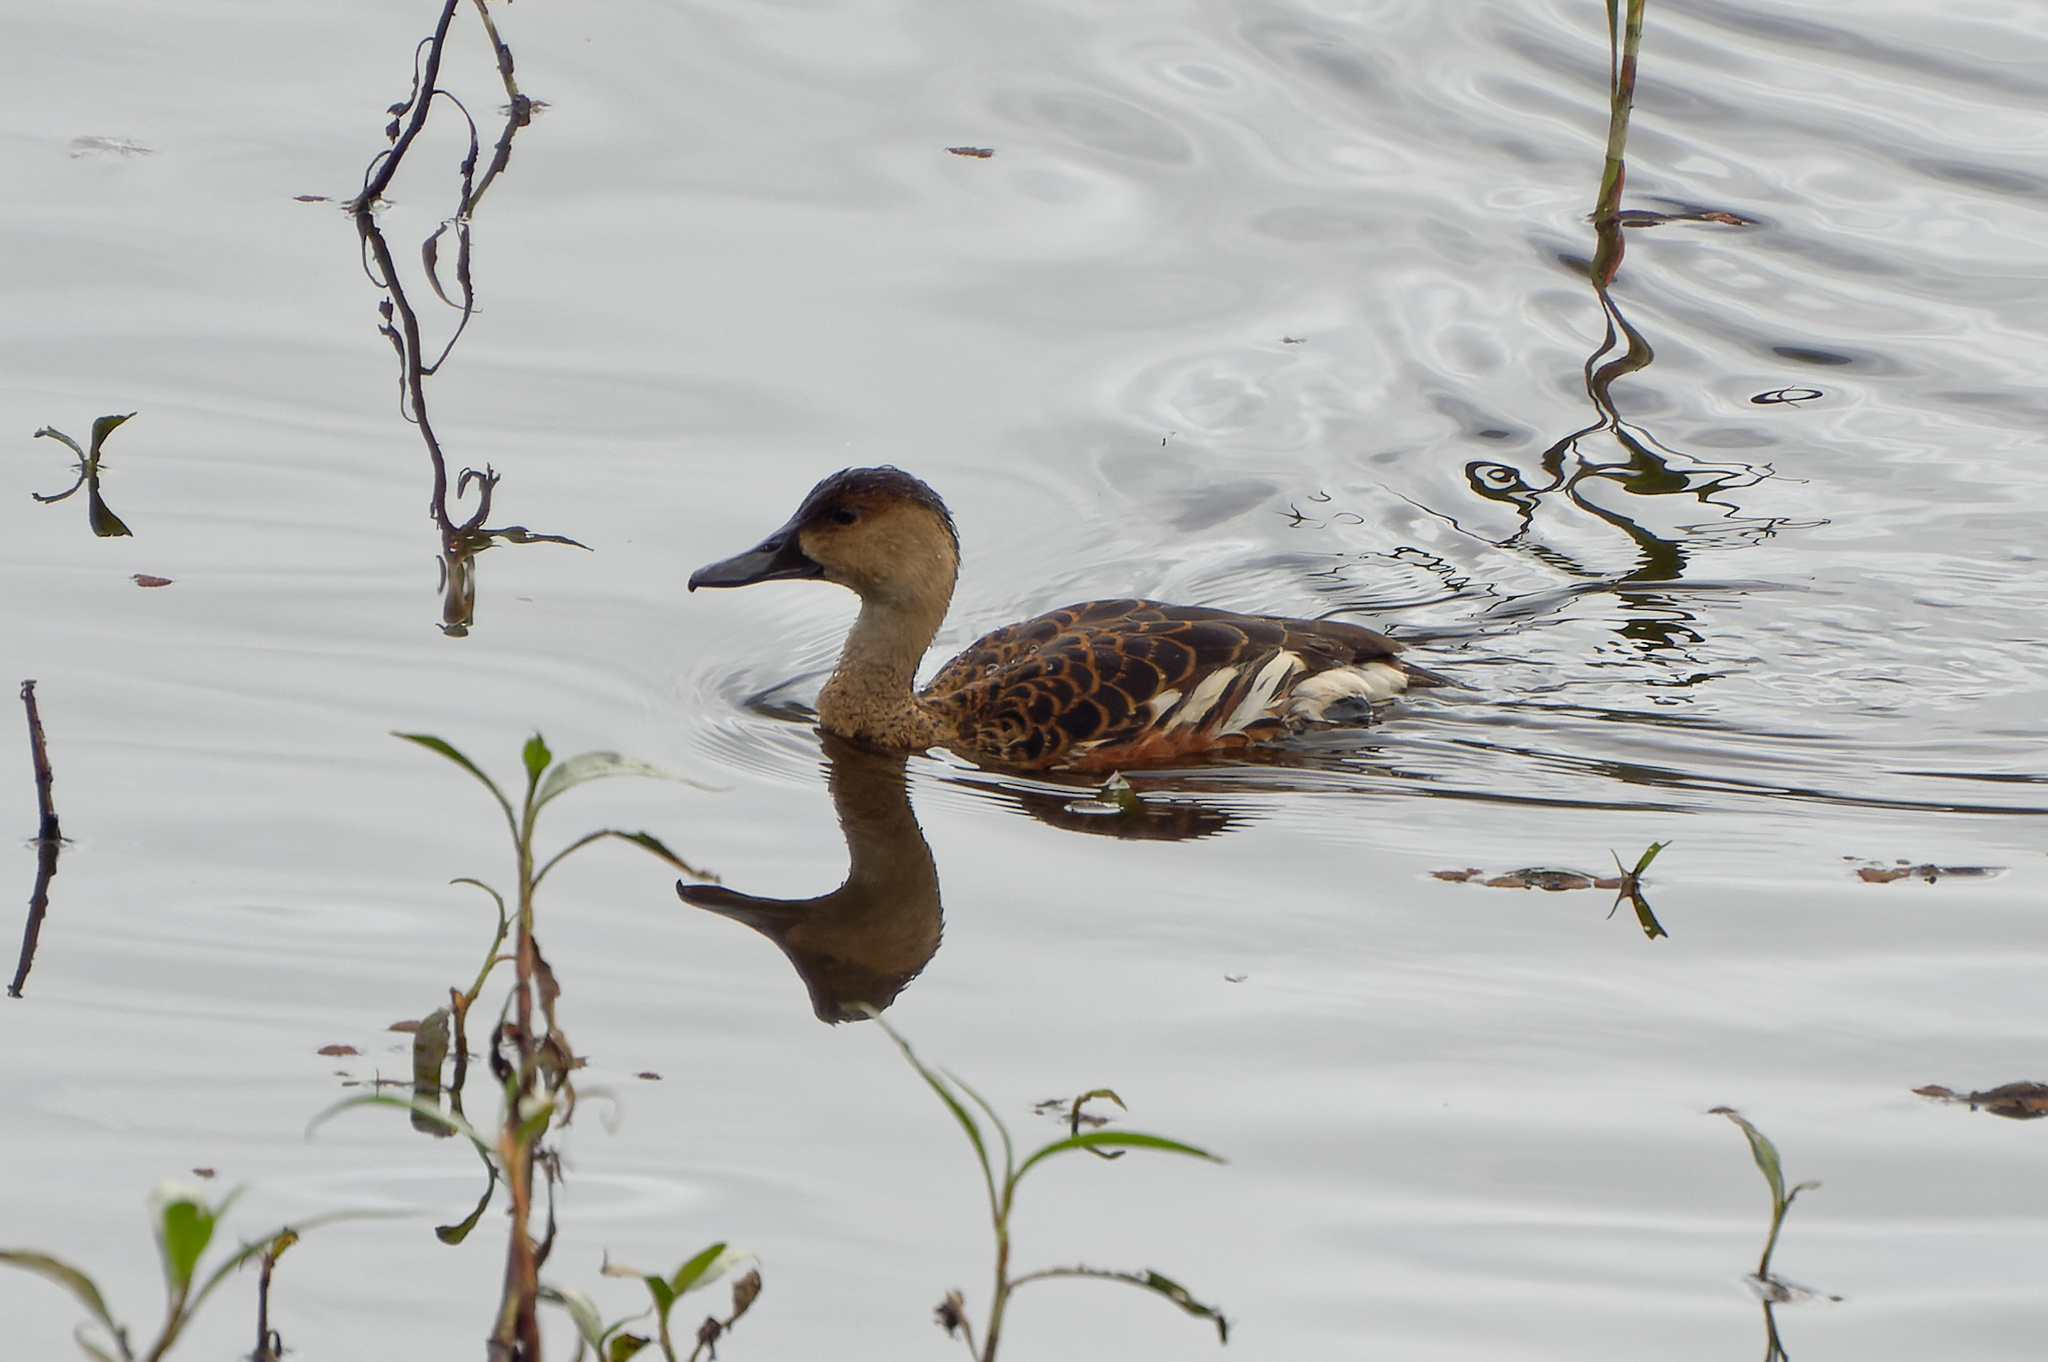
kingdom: Animalia
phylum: Chordata
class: Aves
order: Anseriformes
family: Anatidae
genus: Dendrocygna
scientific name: Dendrocygna arcuata
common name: Wandering whistling-duck
